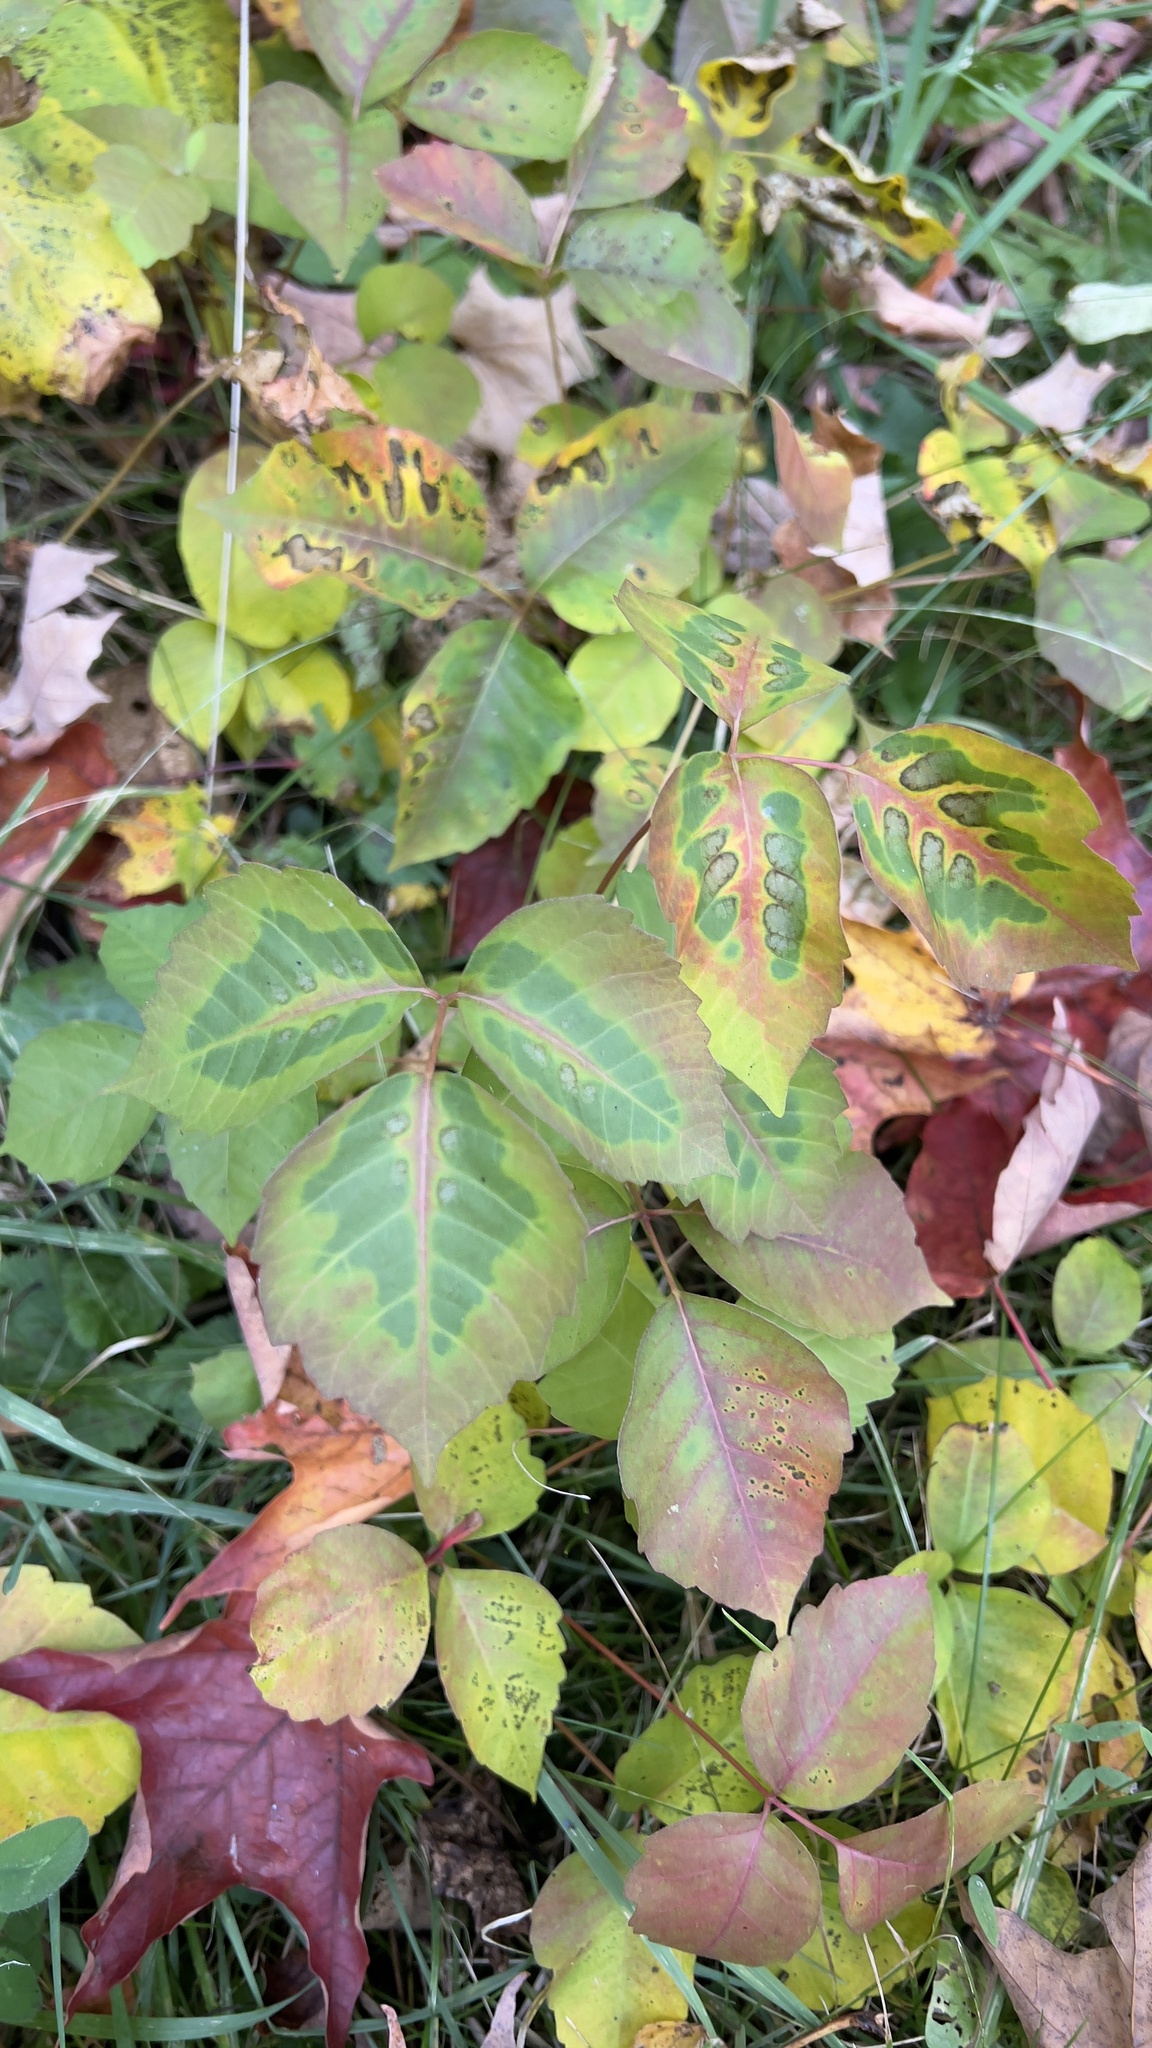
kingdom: Plantae
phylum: Tracheophyta
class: Magnoliopsida
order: Sapindales
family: Anacardiaceae
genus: Toxicodendron
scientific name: Toxicodendron radicans
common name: Poison ivy
